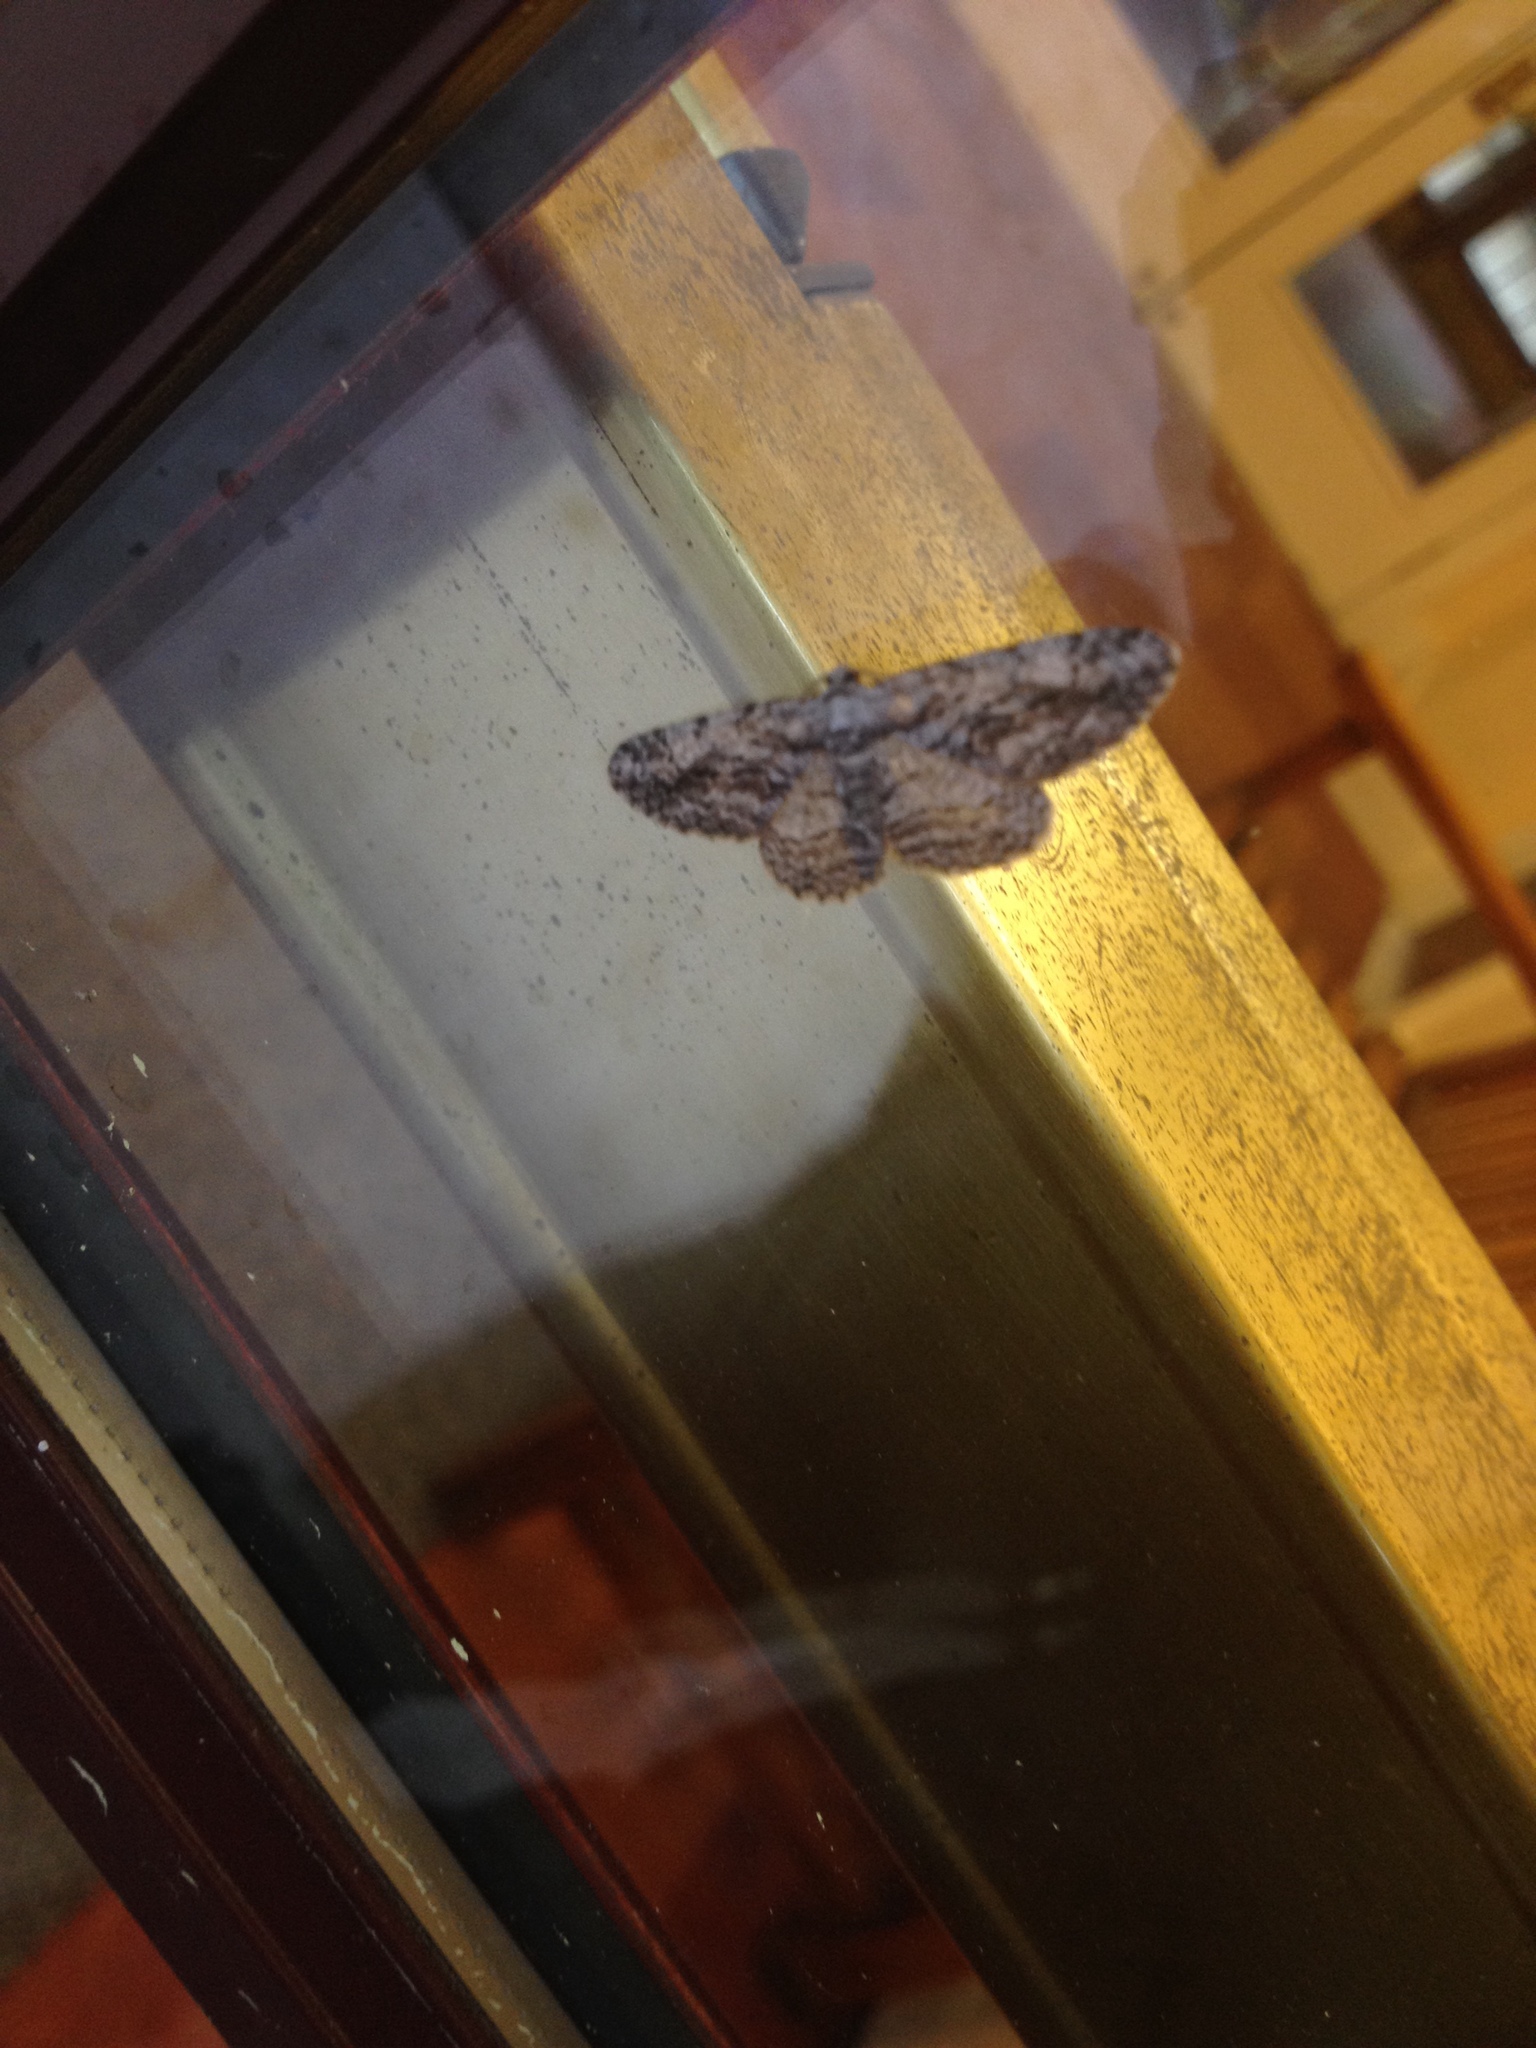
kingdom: Animalia
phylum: Arthropoda
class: Insecta
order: Lepidoptera
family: Geometridae
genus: Anavitrinella
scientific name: Anavitrinella pampinaria
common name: Common gray
